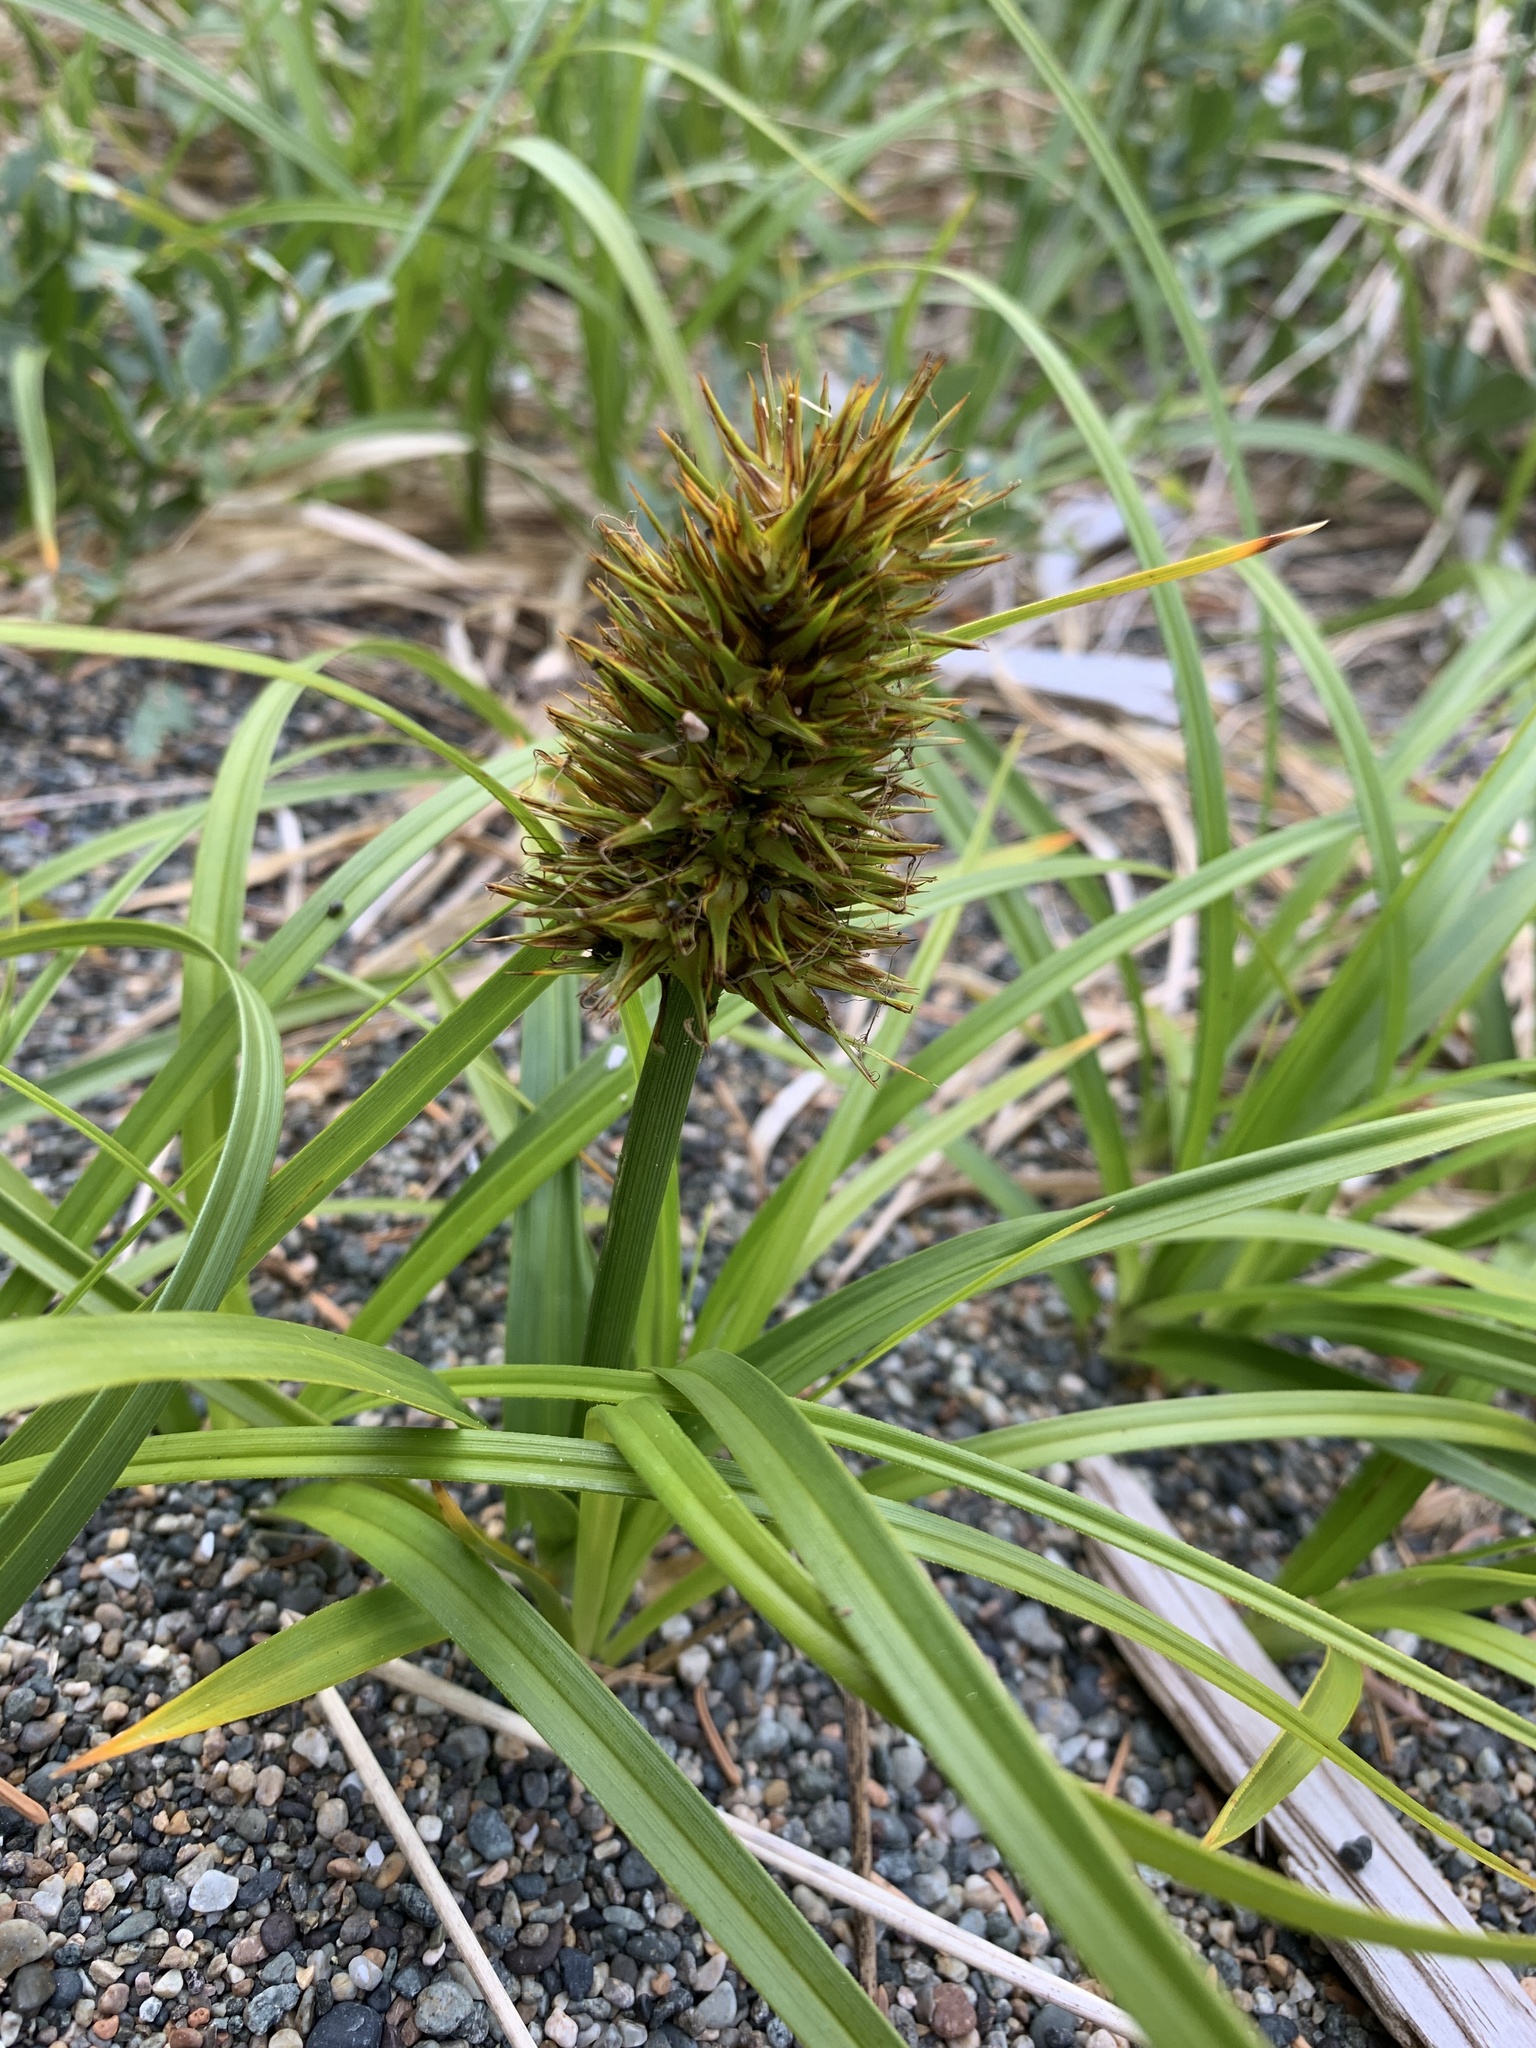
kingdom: Plantae
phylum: Tracheophyta
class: Liliopsida
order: Poales
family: Cyperaceae
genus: Carex
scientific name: Carex macrocephala
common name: Large-head sedge
